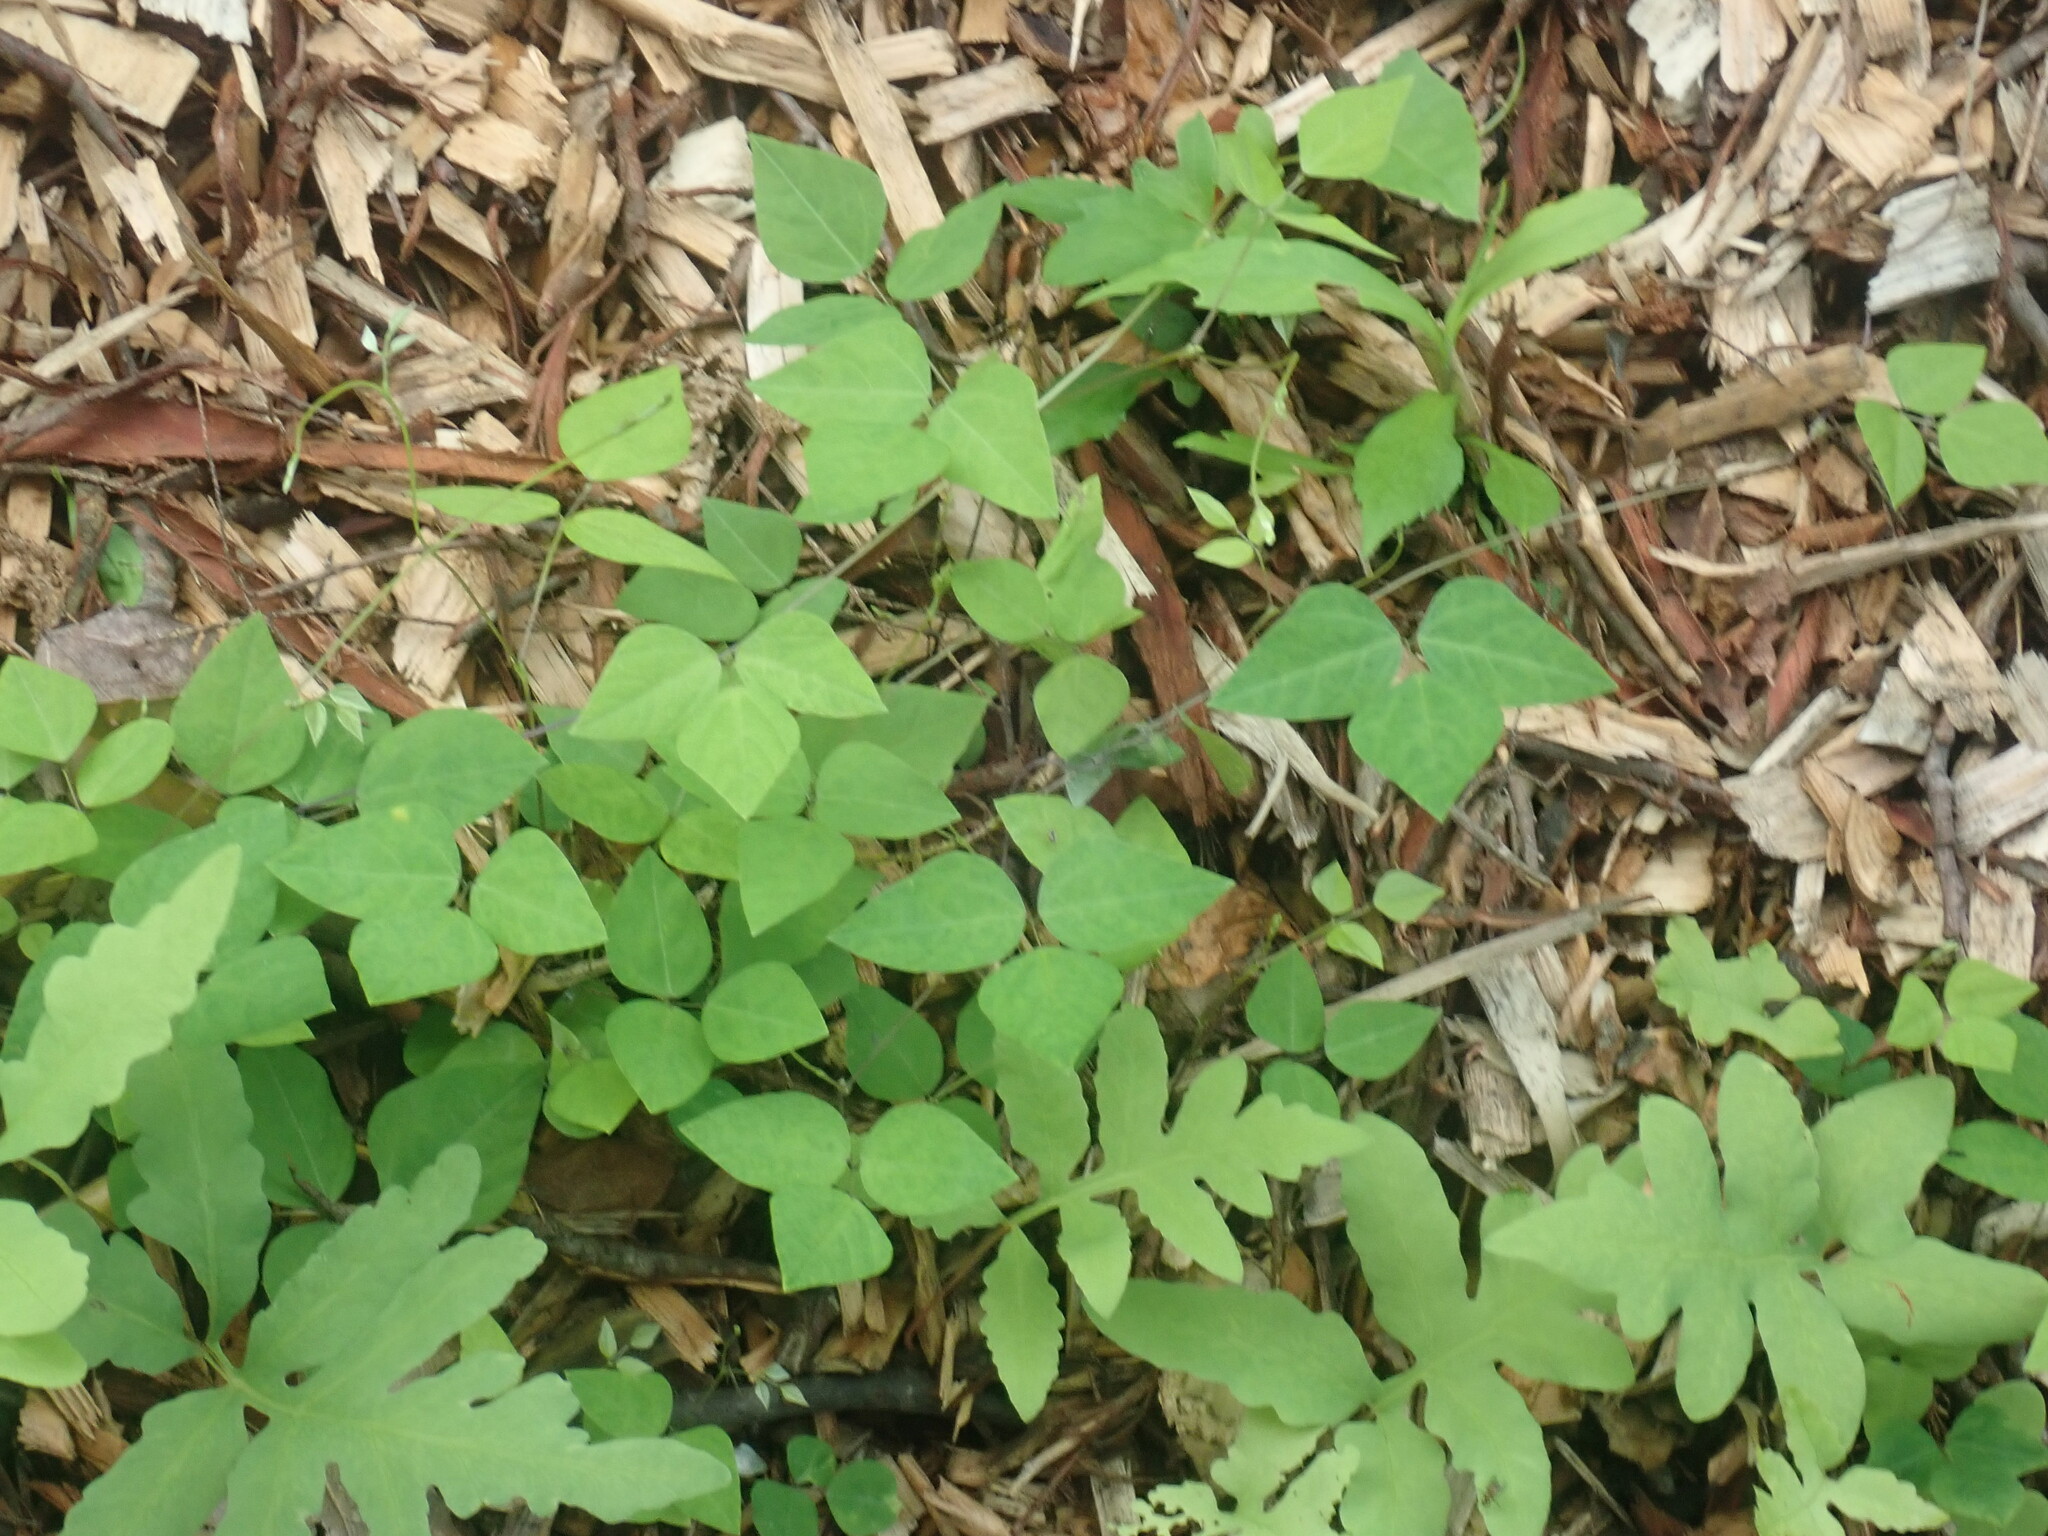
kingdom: Plantae
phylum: Tracheophyta
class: Magnoliopsida
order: Fabales
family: Fabaceae
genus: Amphicarpaea
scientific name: Amphicarpaea bracteata
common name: American hog peanut
